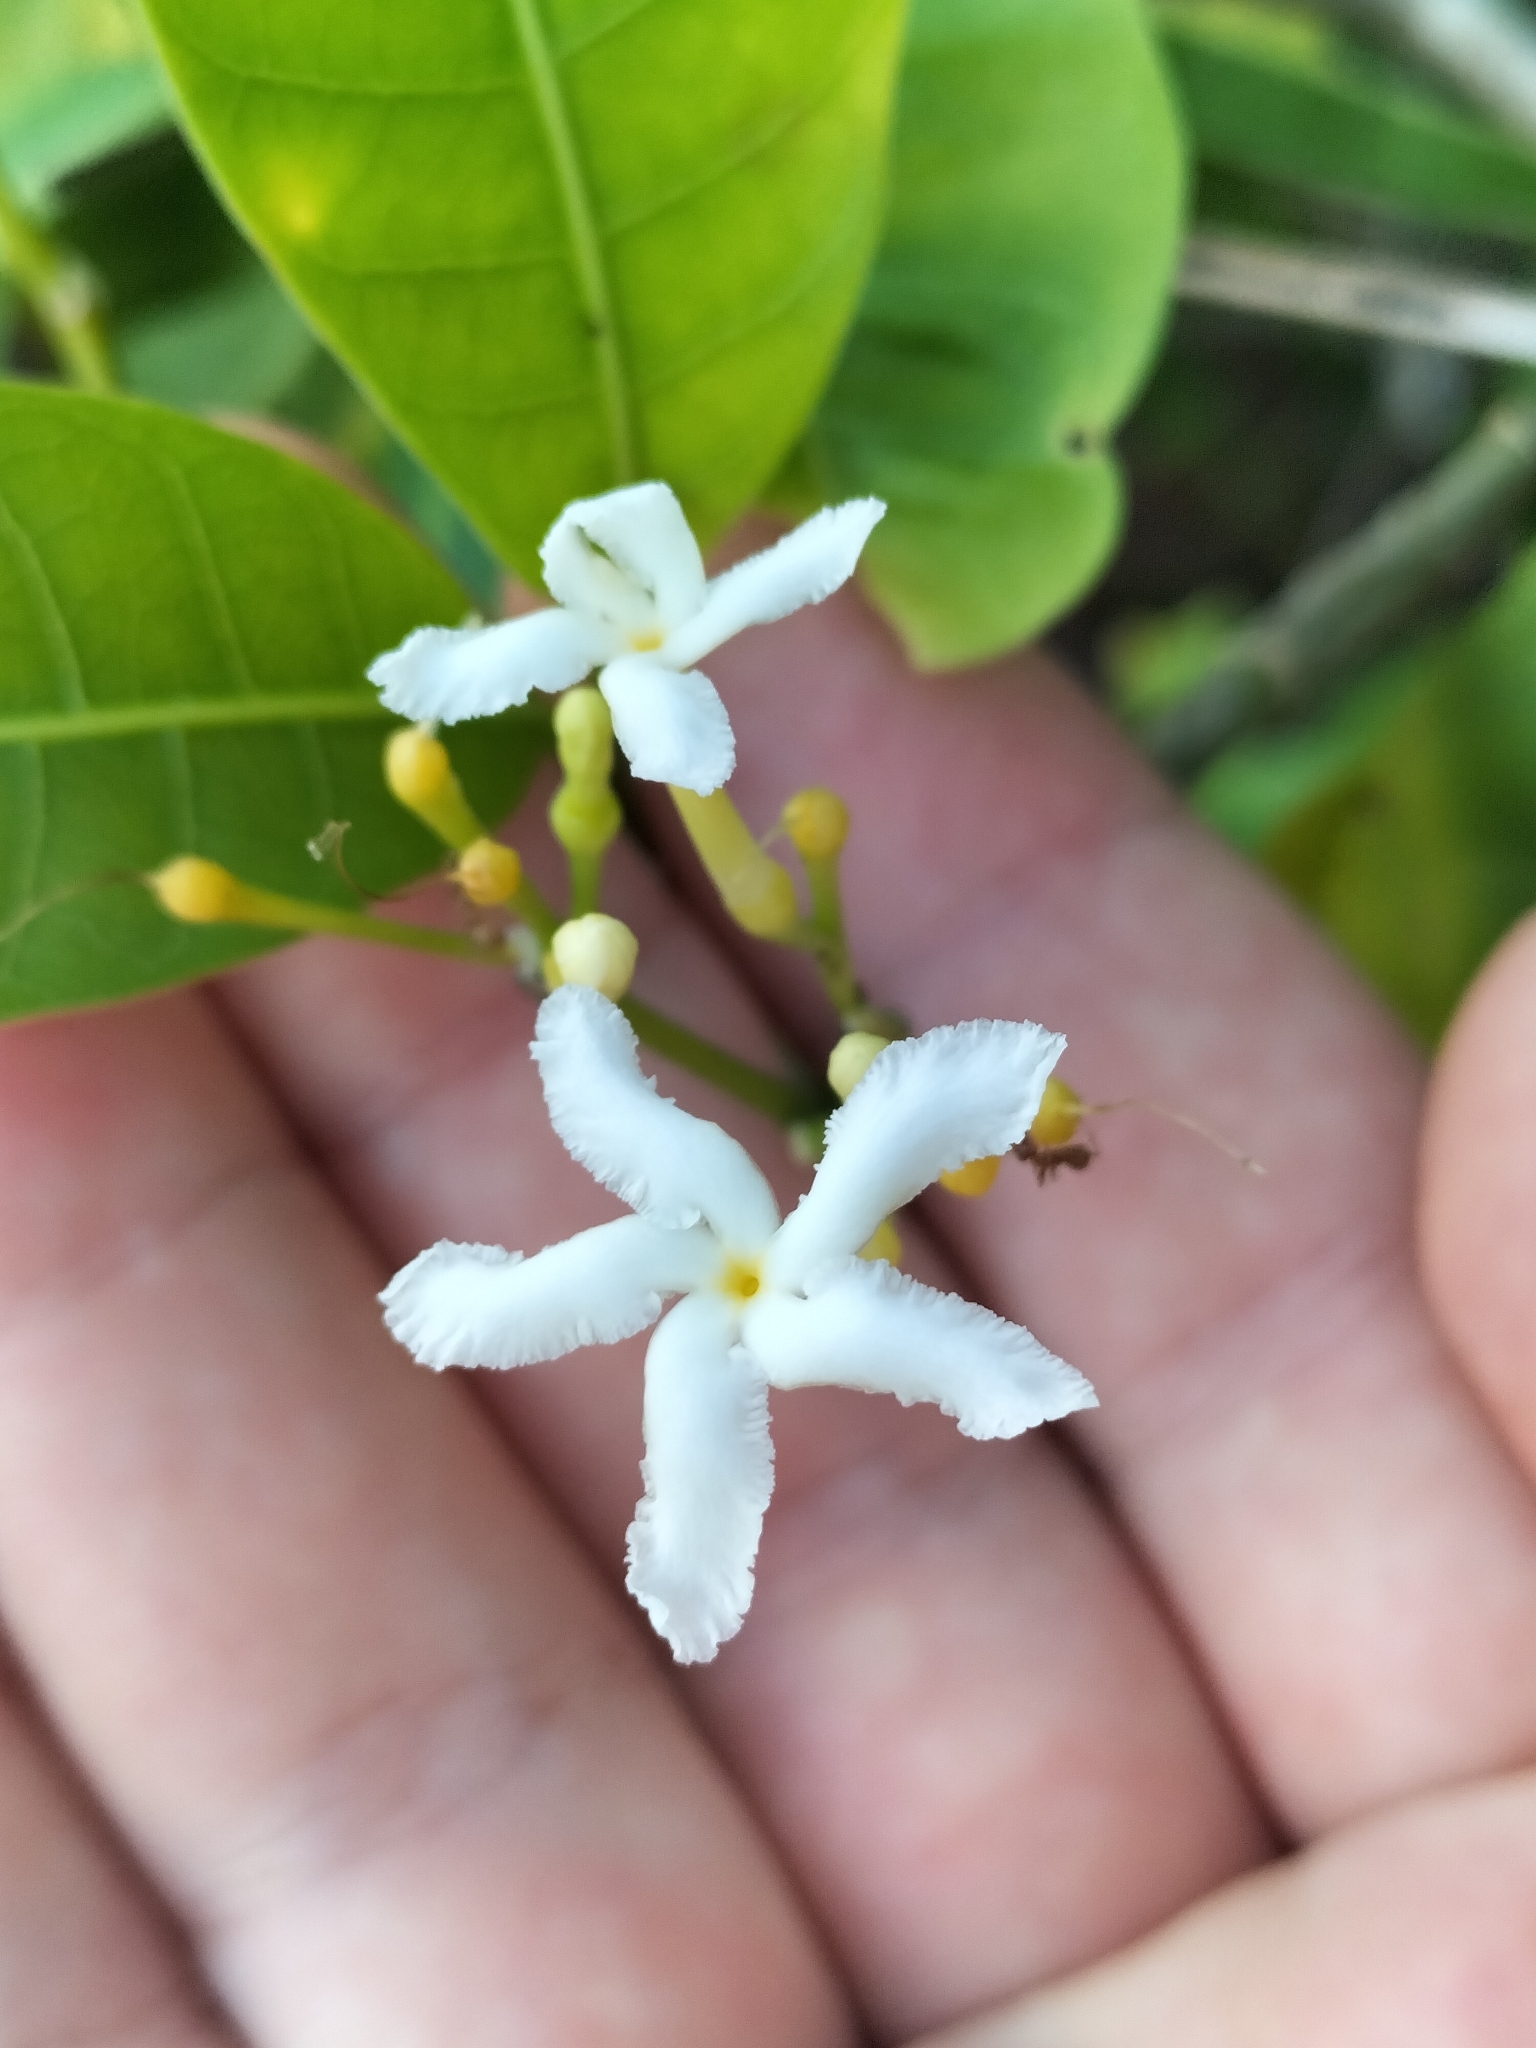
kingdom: Plantae
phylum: Tracheophyta
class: Magnoliopsida
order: Gentianales
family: Apocynaceae
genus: Tabernaemontana
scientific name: Tabernaemontana pandacaqui
